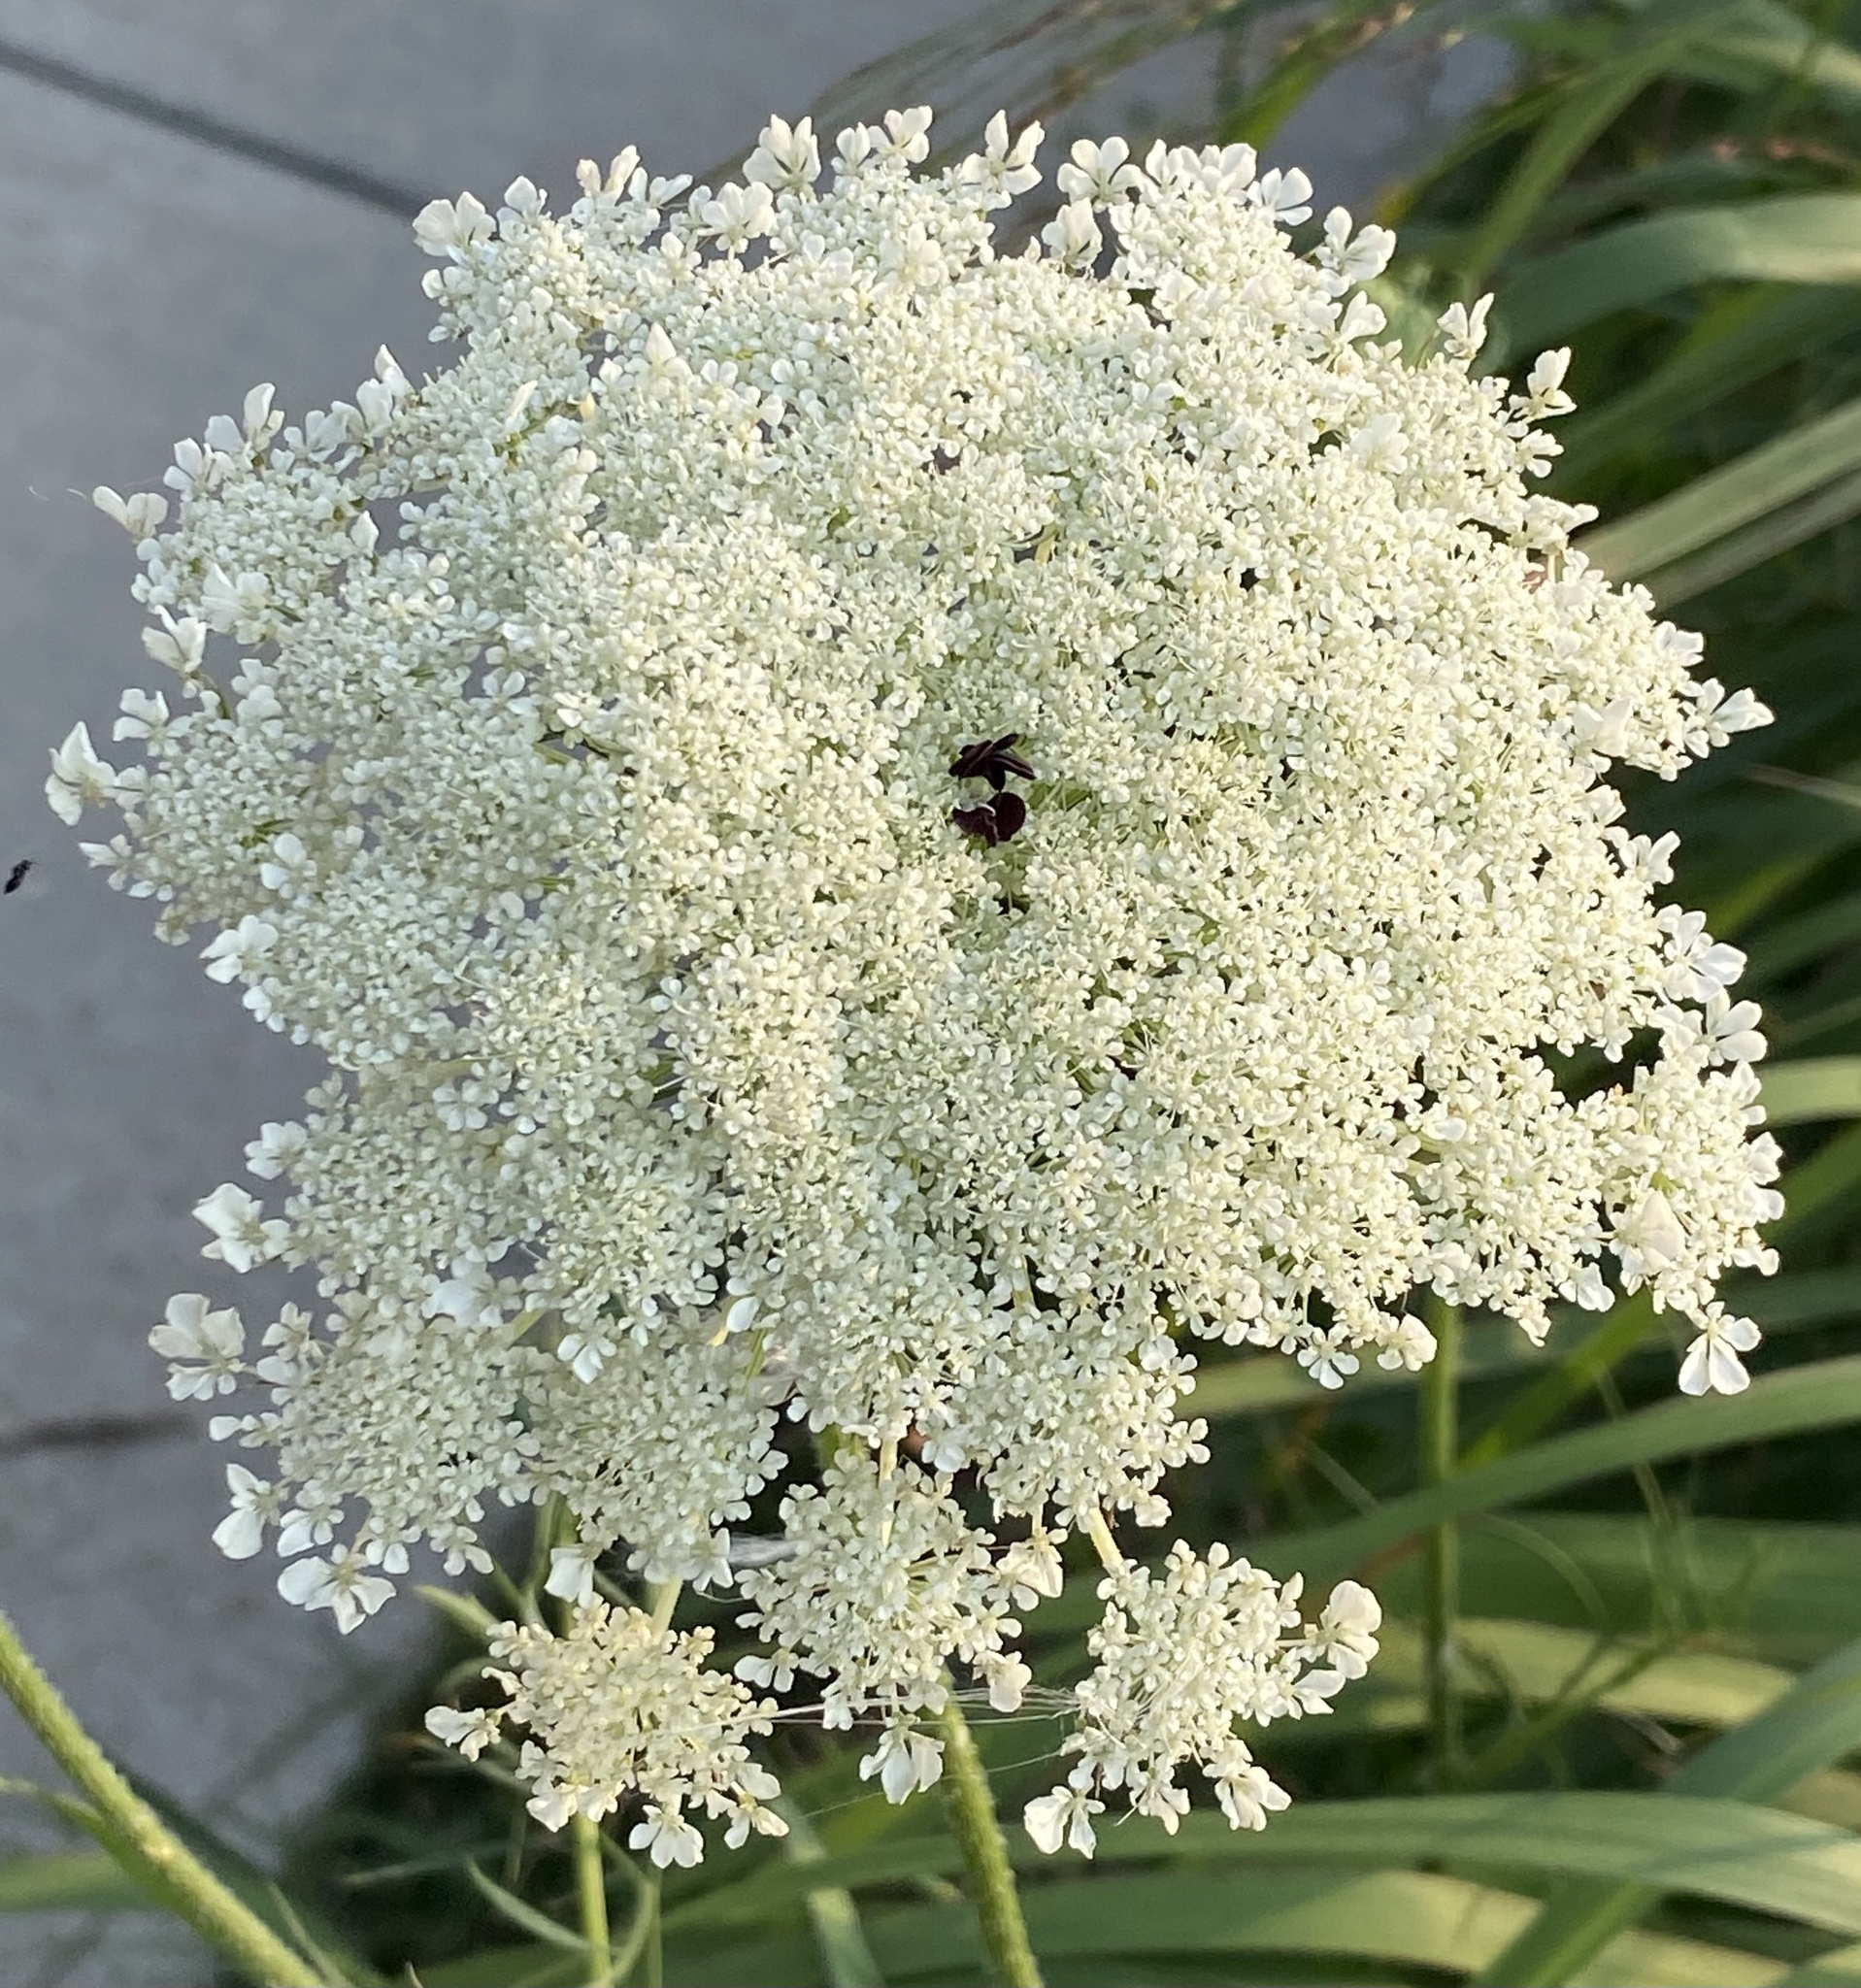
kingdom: Plantae
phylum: Tracheophyta
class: Magnoliopsida
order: Apiales
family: Apiaceae
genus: Daucus
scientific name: Daucus carota
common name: Wild carrot
